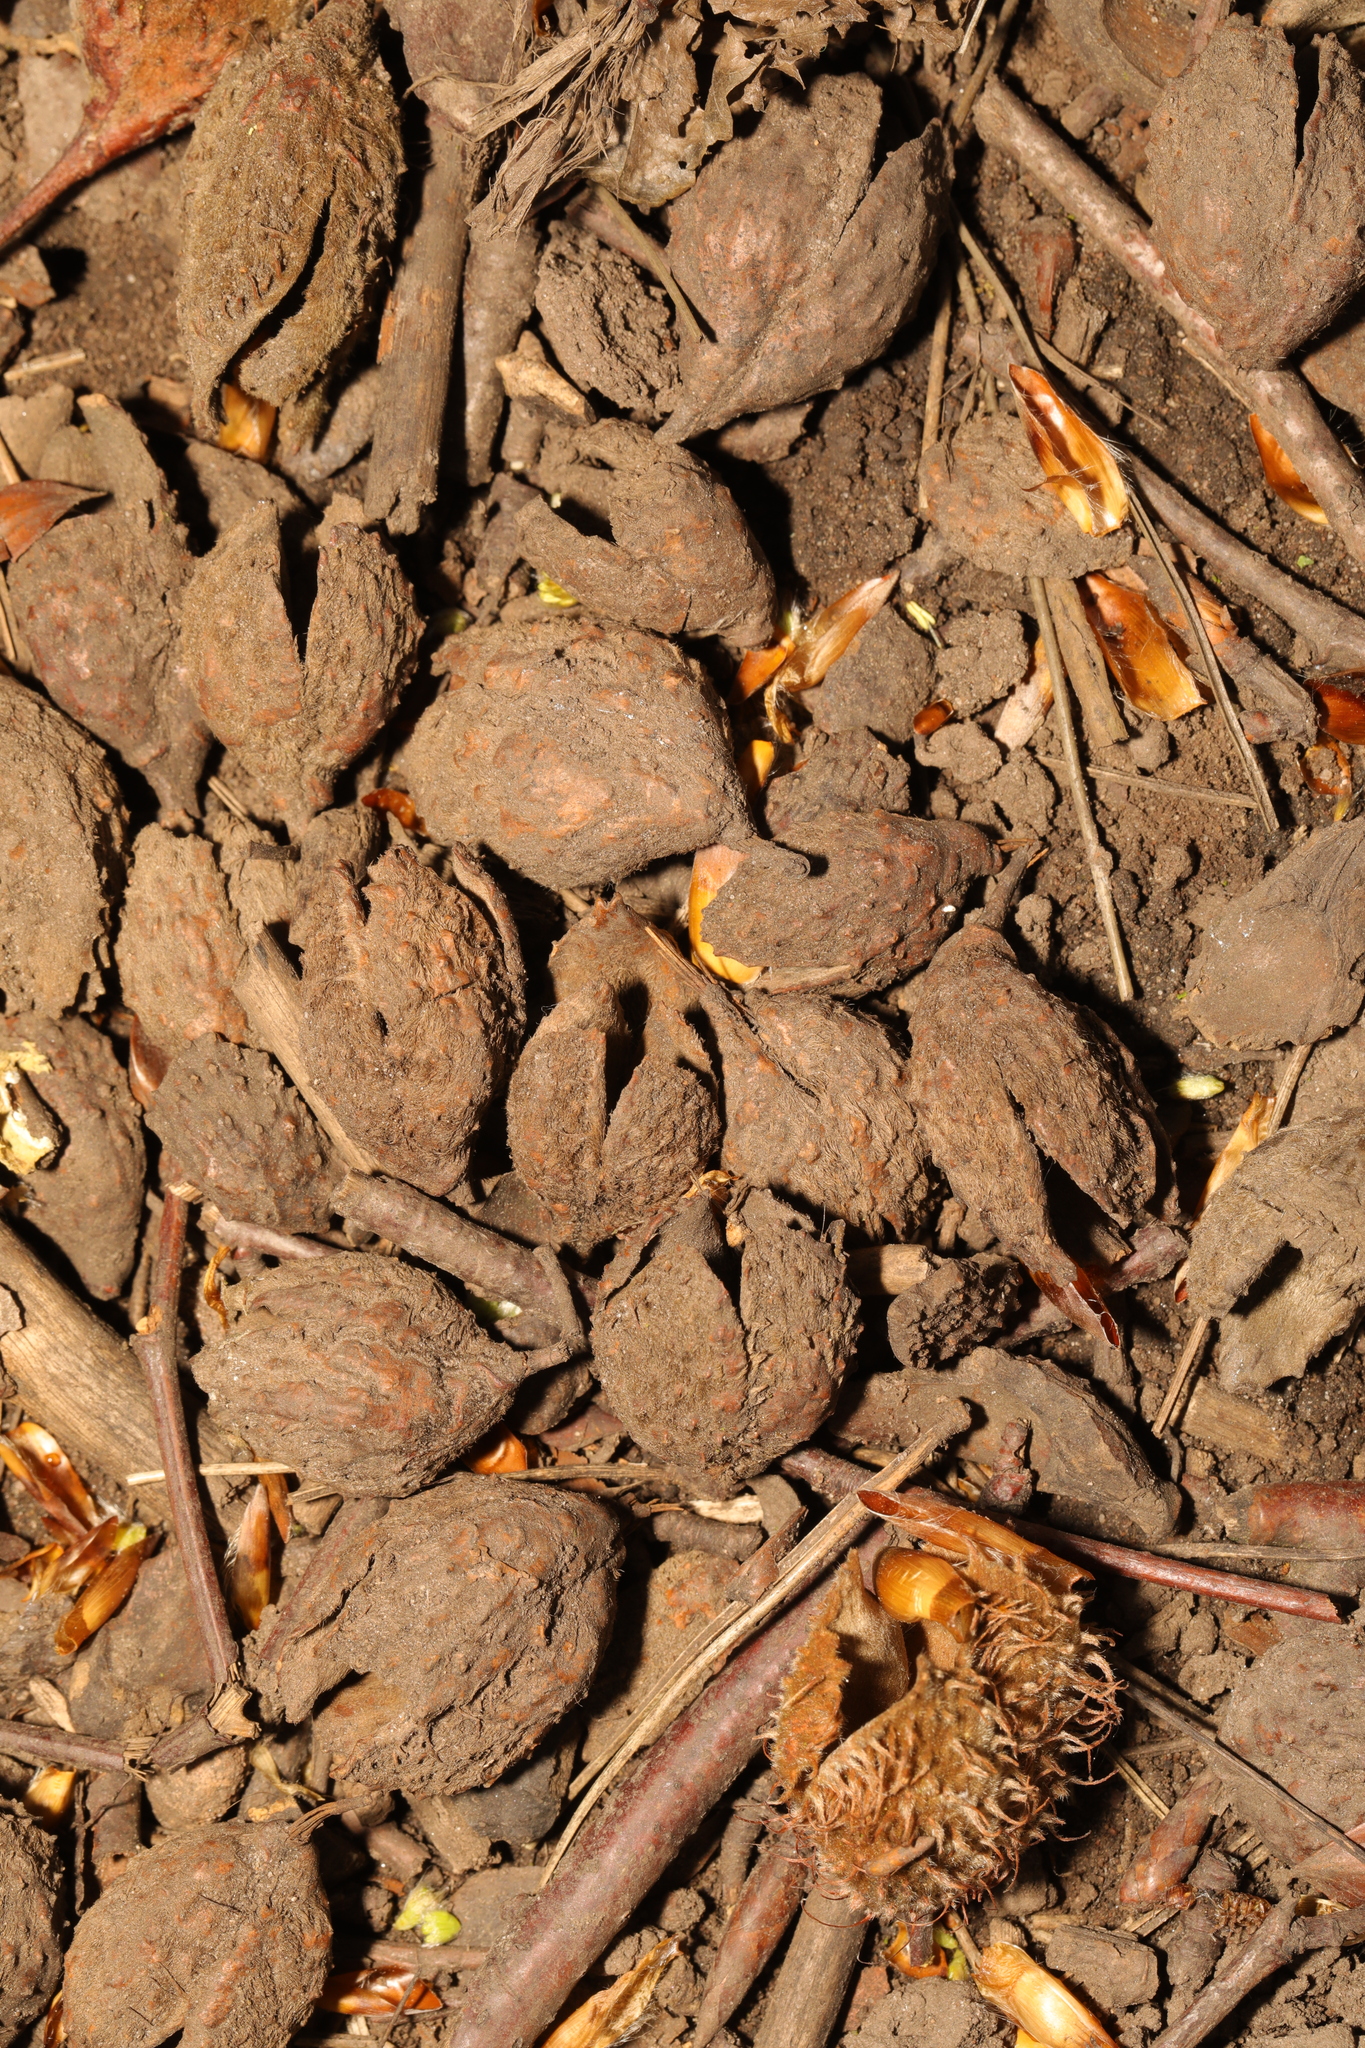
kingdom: Plantae
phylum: Tracheophyta
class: Magnoliopsida
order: Fagales
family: Fagaceae
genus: Fagus
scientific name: Fagus sylvatica
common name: Beech
